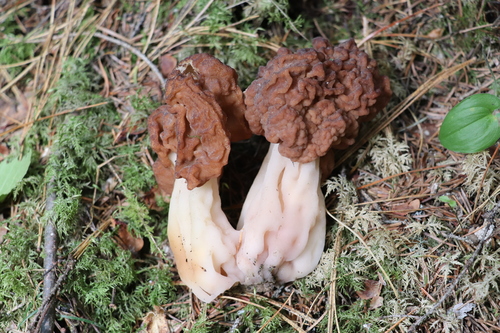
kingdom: Fungi
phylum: Ascomycota
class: Pezizomycetes
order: Pezizales
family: Discinaceae
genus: Gyromitra
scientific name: Gyromitra esculenta
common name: False morel
